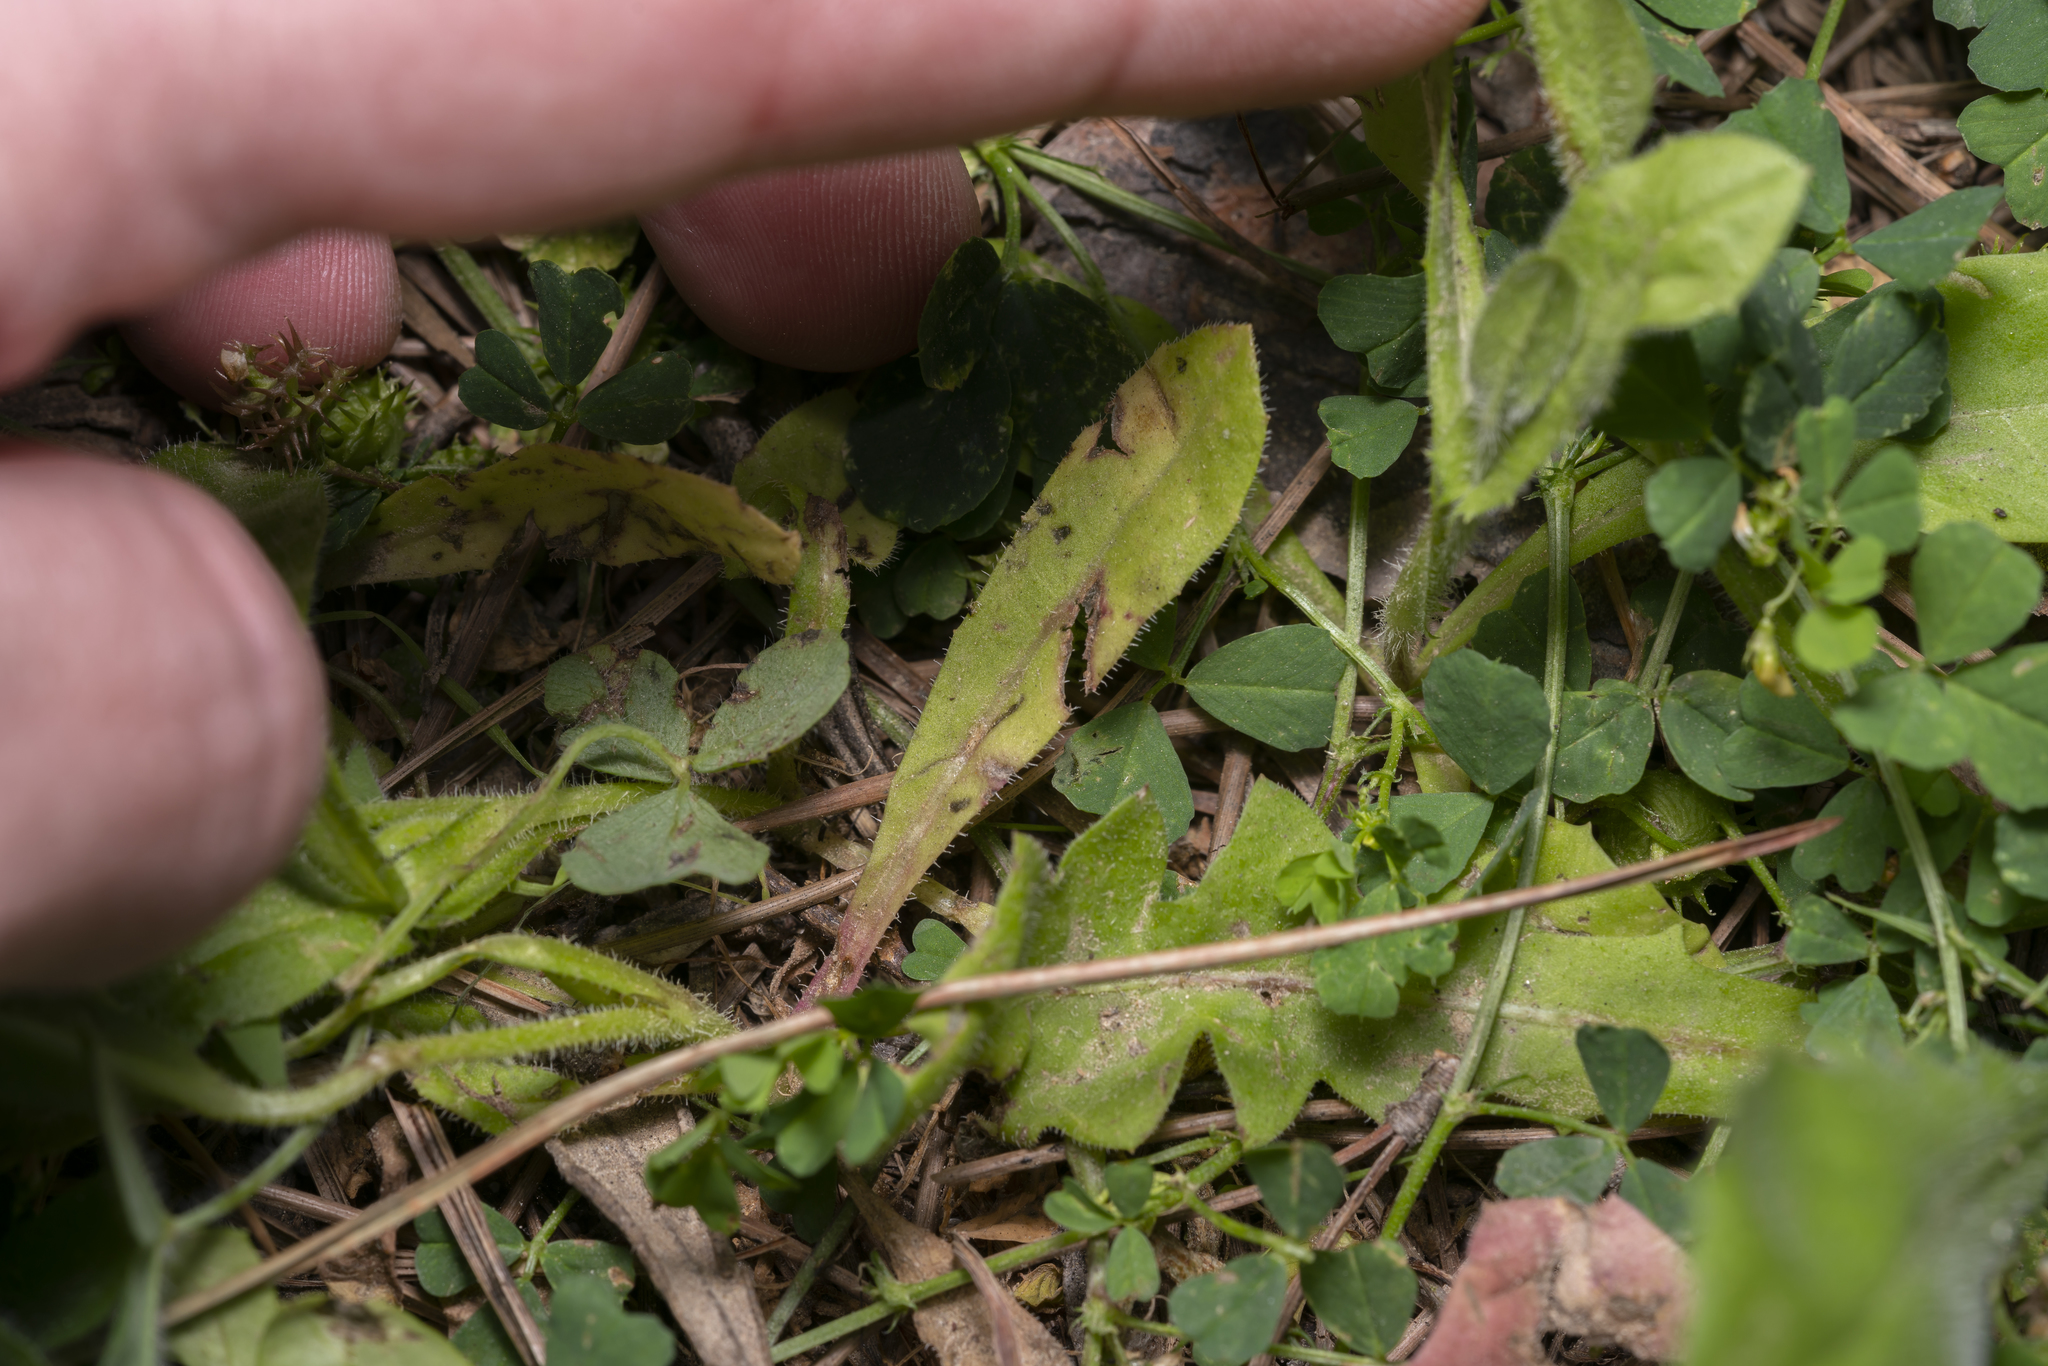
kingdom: Plantae
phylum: Tracheophyta
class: Magnoliopsida
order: Asterales
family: Asteraceae
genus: Hedypnois
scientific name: Hedypnois rhagadioloides
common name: Cretan weed
